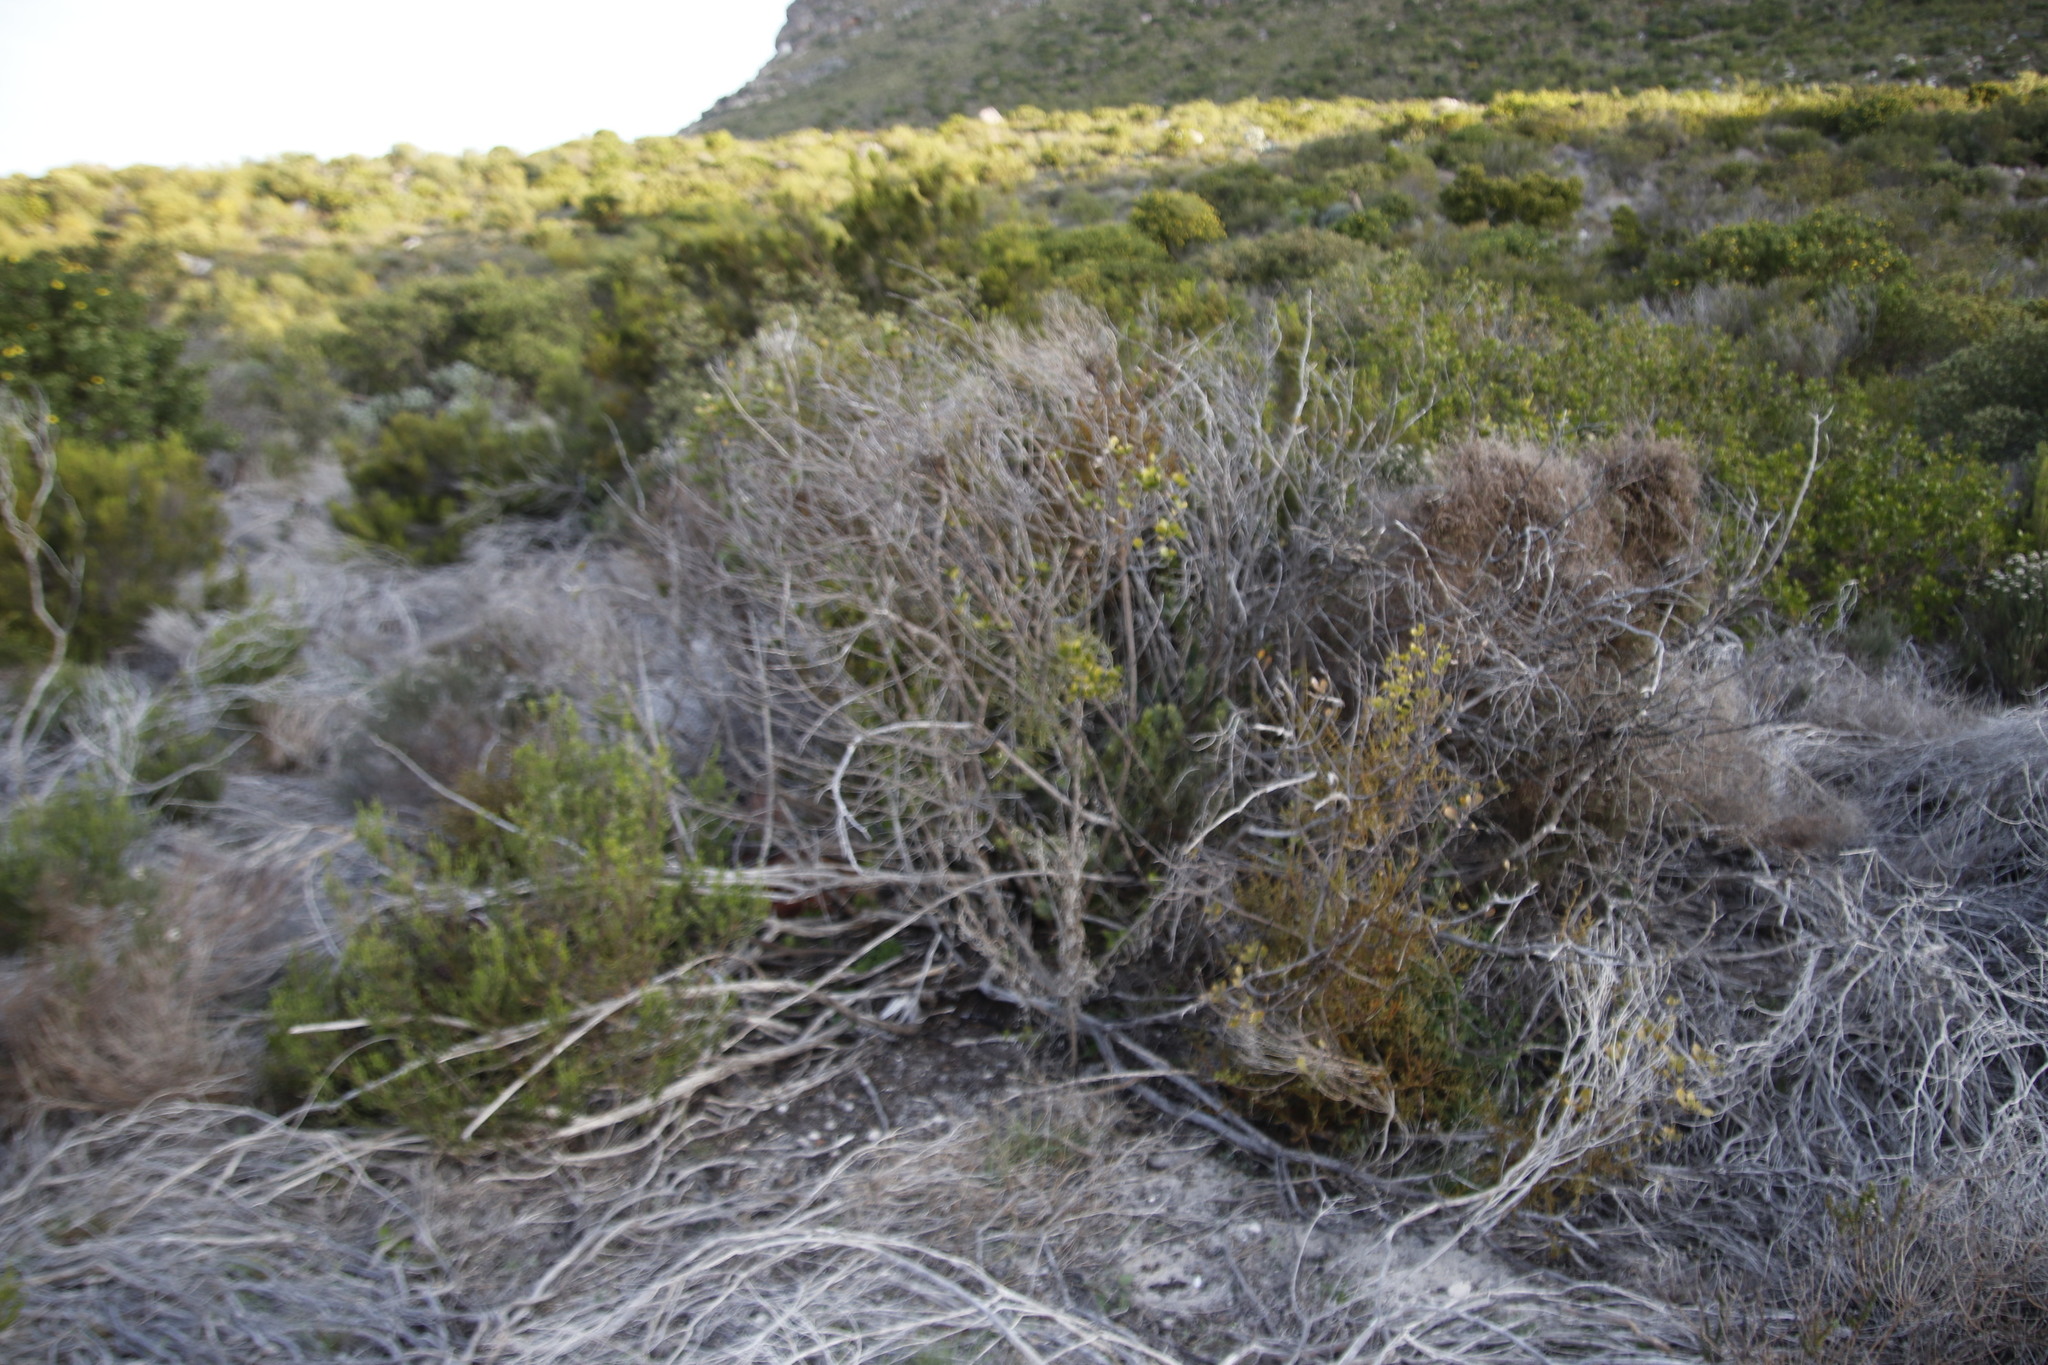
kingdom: Plantae
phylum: Tracheophyta
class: Magnoliopsida
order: Sapindales
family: Anacardiaceae
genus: Searsia
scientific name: Searsia lucida
